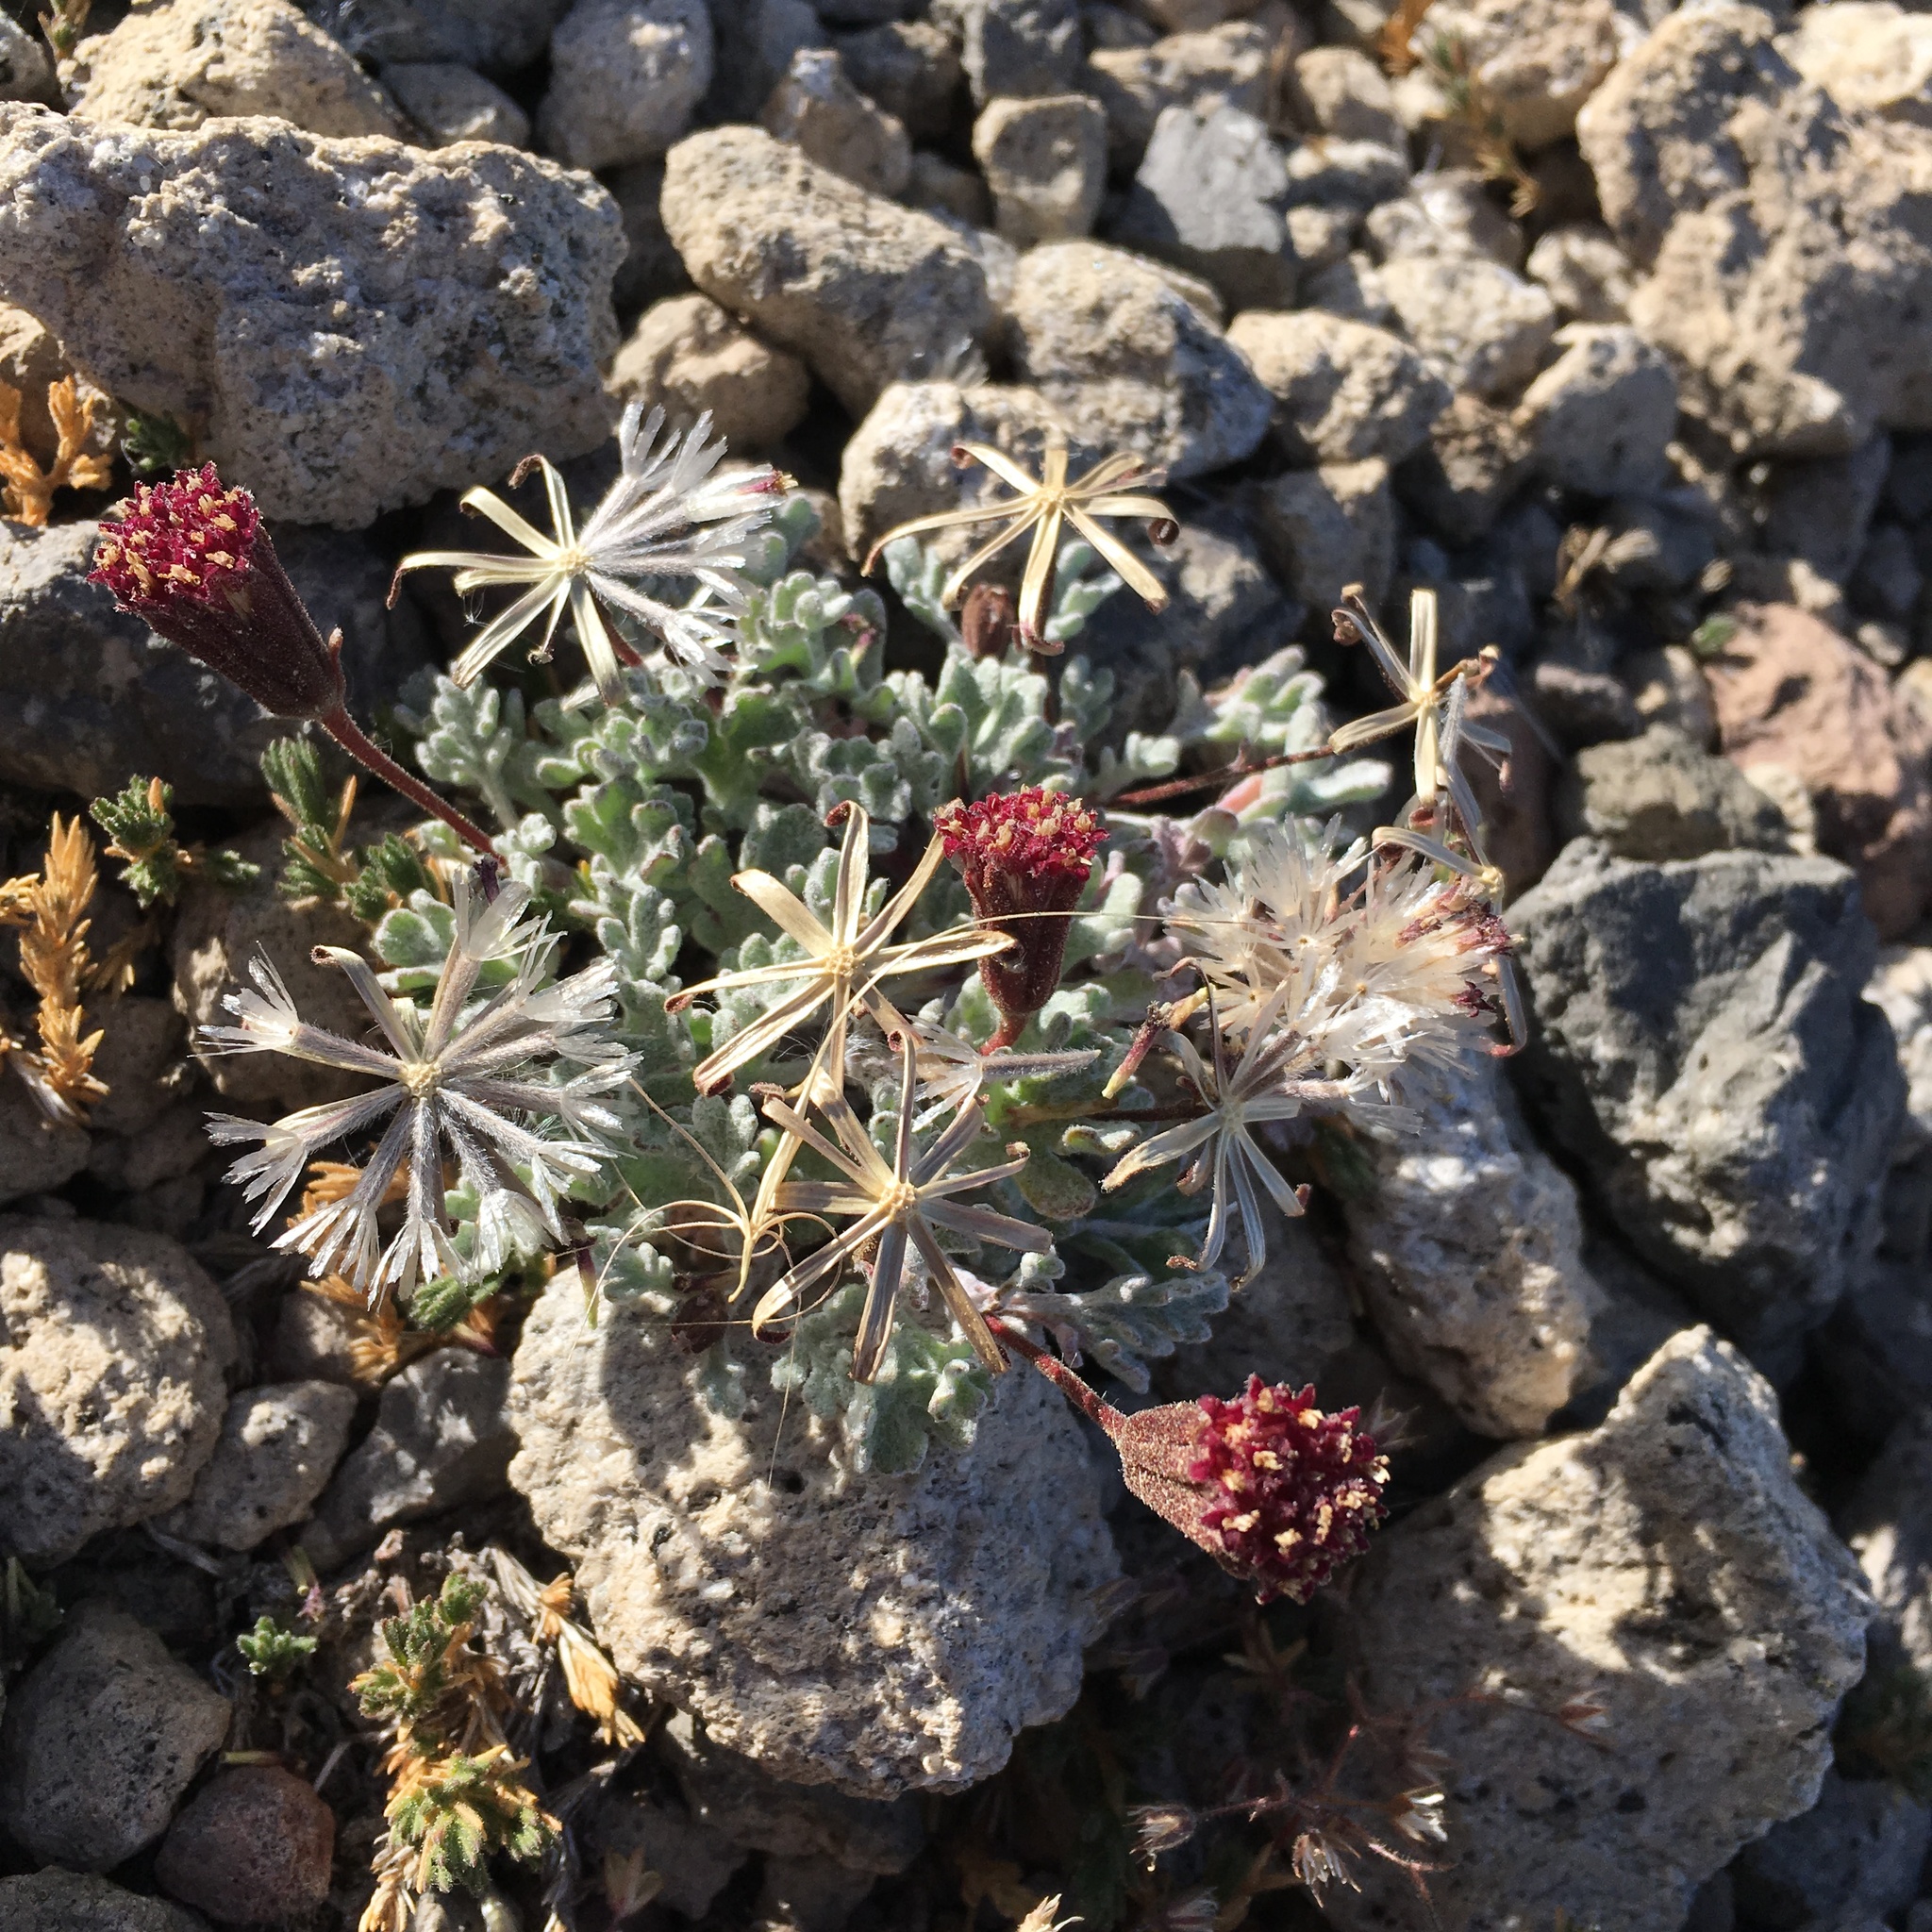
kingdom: Plantae
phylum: Tracheophyta
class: Magnoliopsida
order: Asterales
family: Asteraceae
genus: Chaenactis
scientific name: Chaenactis nevadensis
